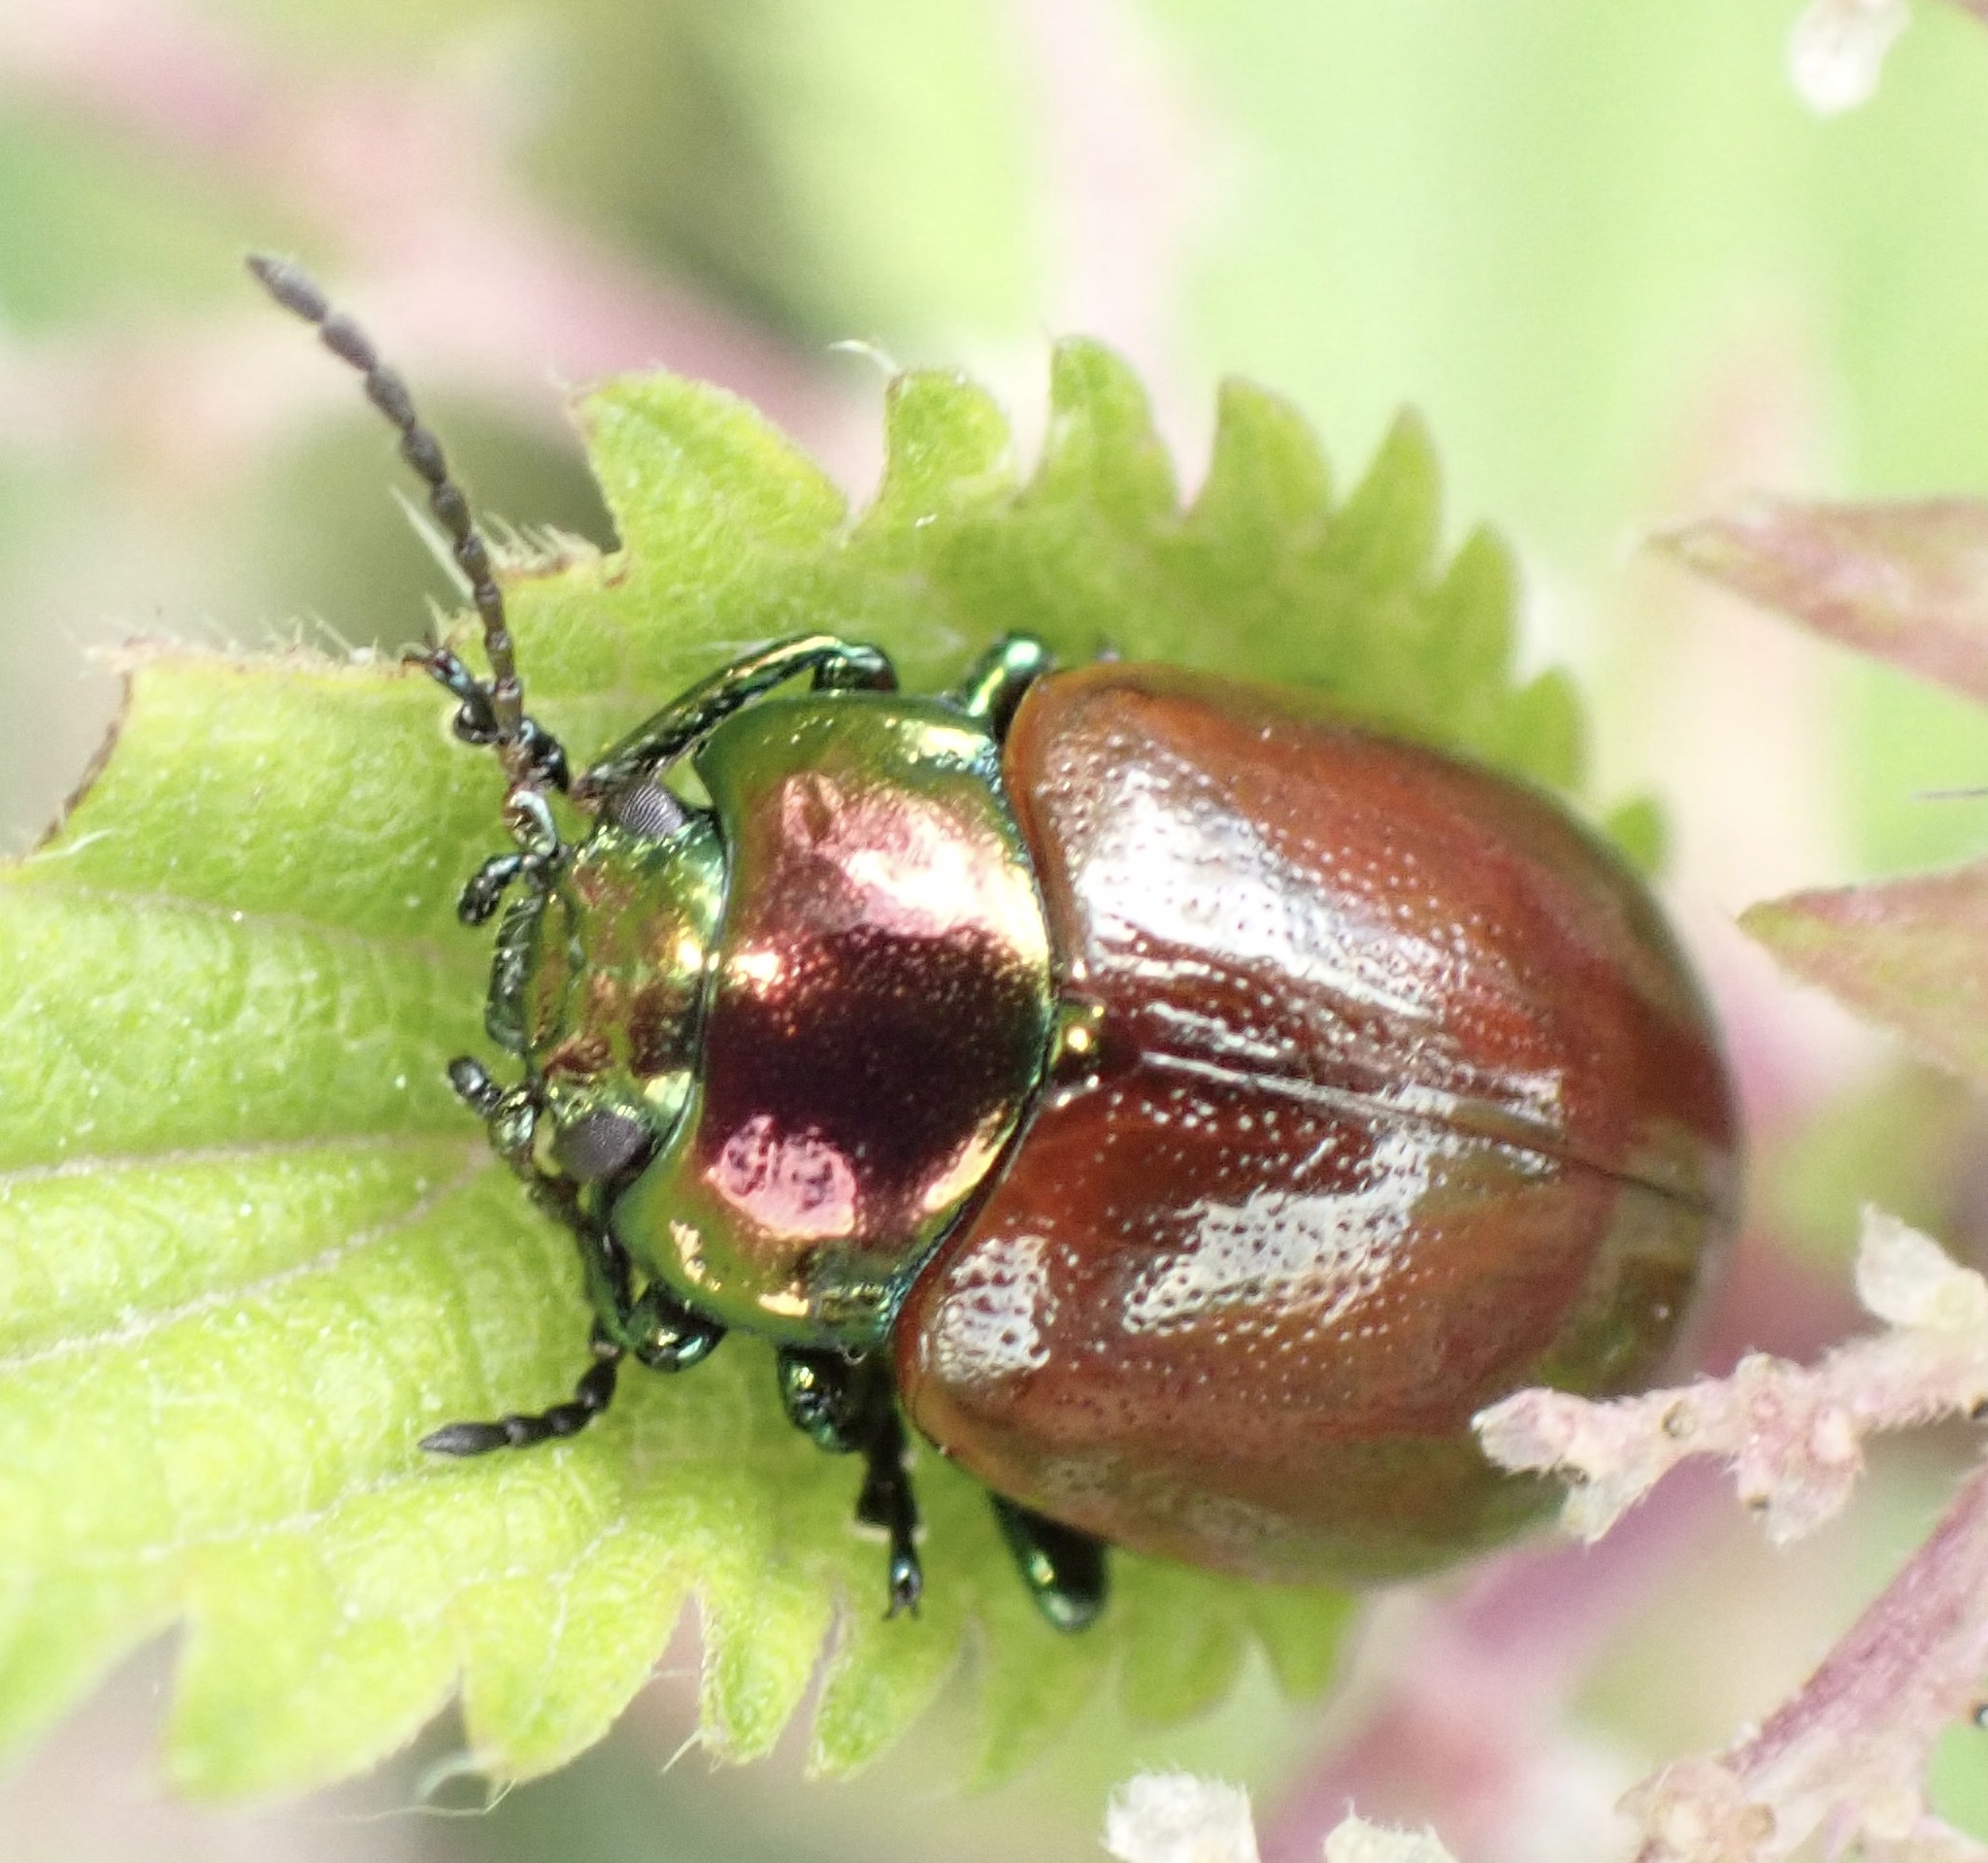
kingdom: Animalia
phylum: Arthropoda
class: Insecta
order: Coleoptera
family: Chrysomelidae
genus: Chrysomela
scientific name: Chrysomela polita
